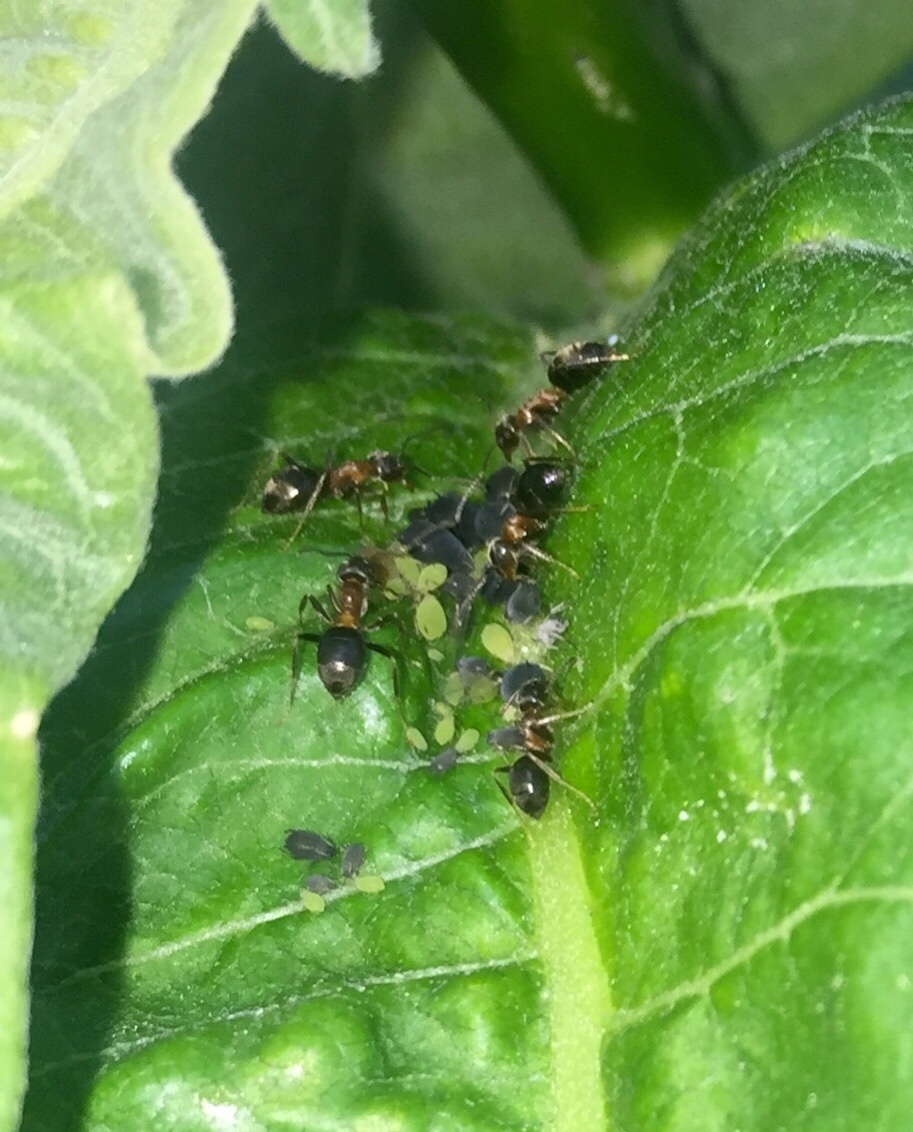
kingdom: Animalia
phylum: Arthropoda
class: Insecta
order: Hymenoptera
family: Formicidae
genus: Lasius
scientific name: Lasius emarginatus
